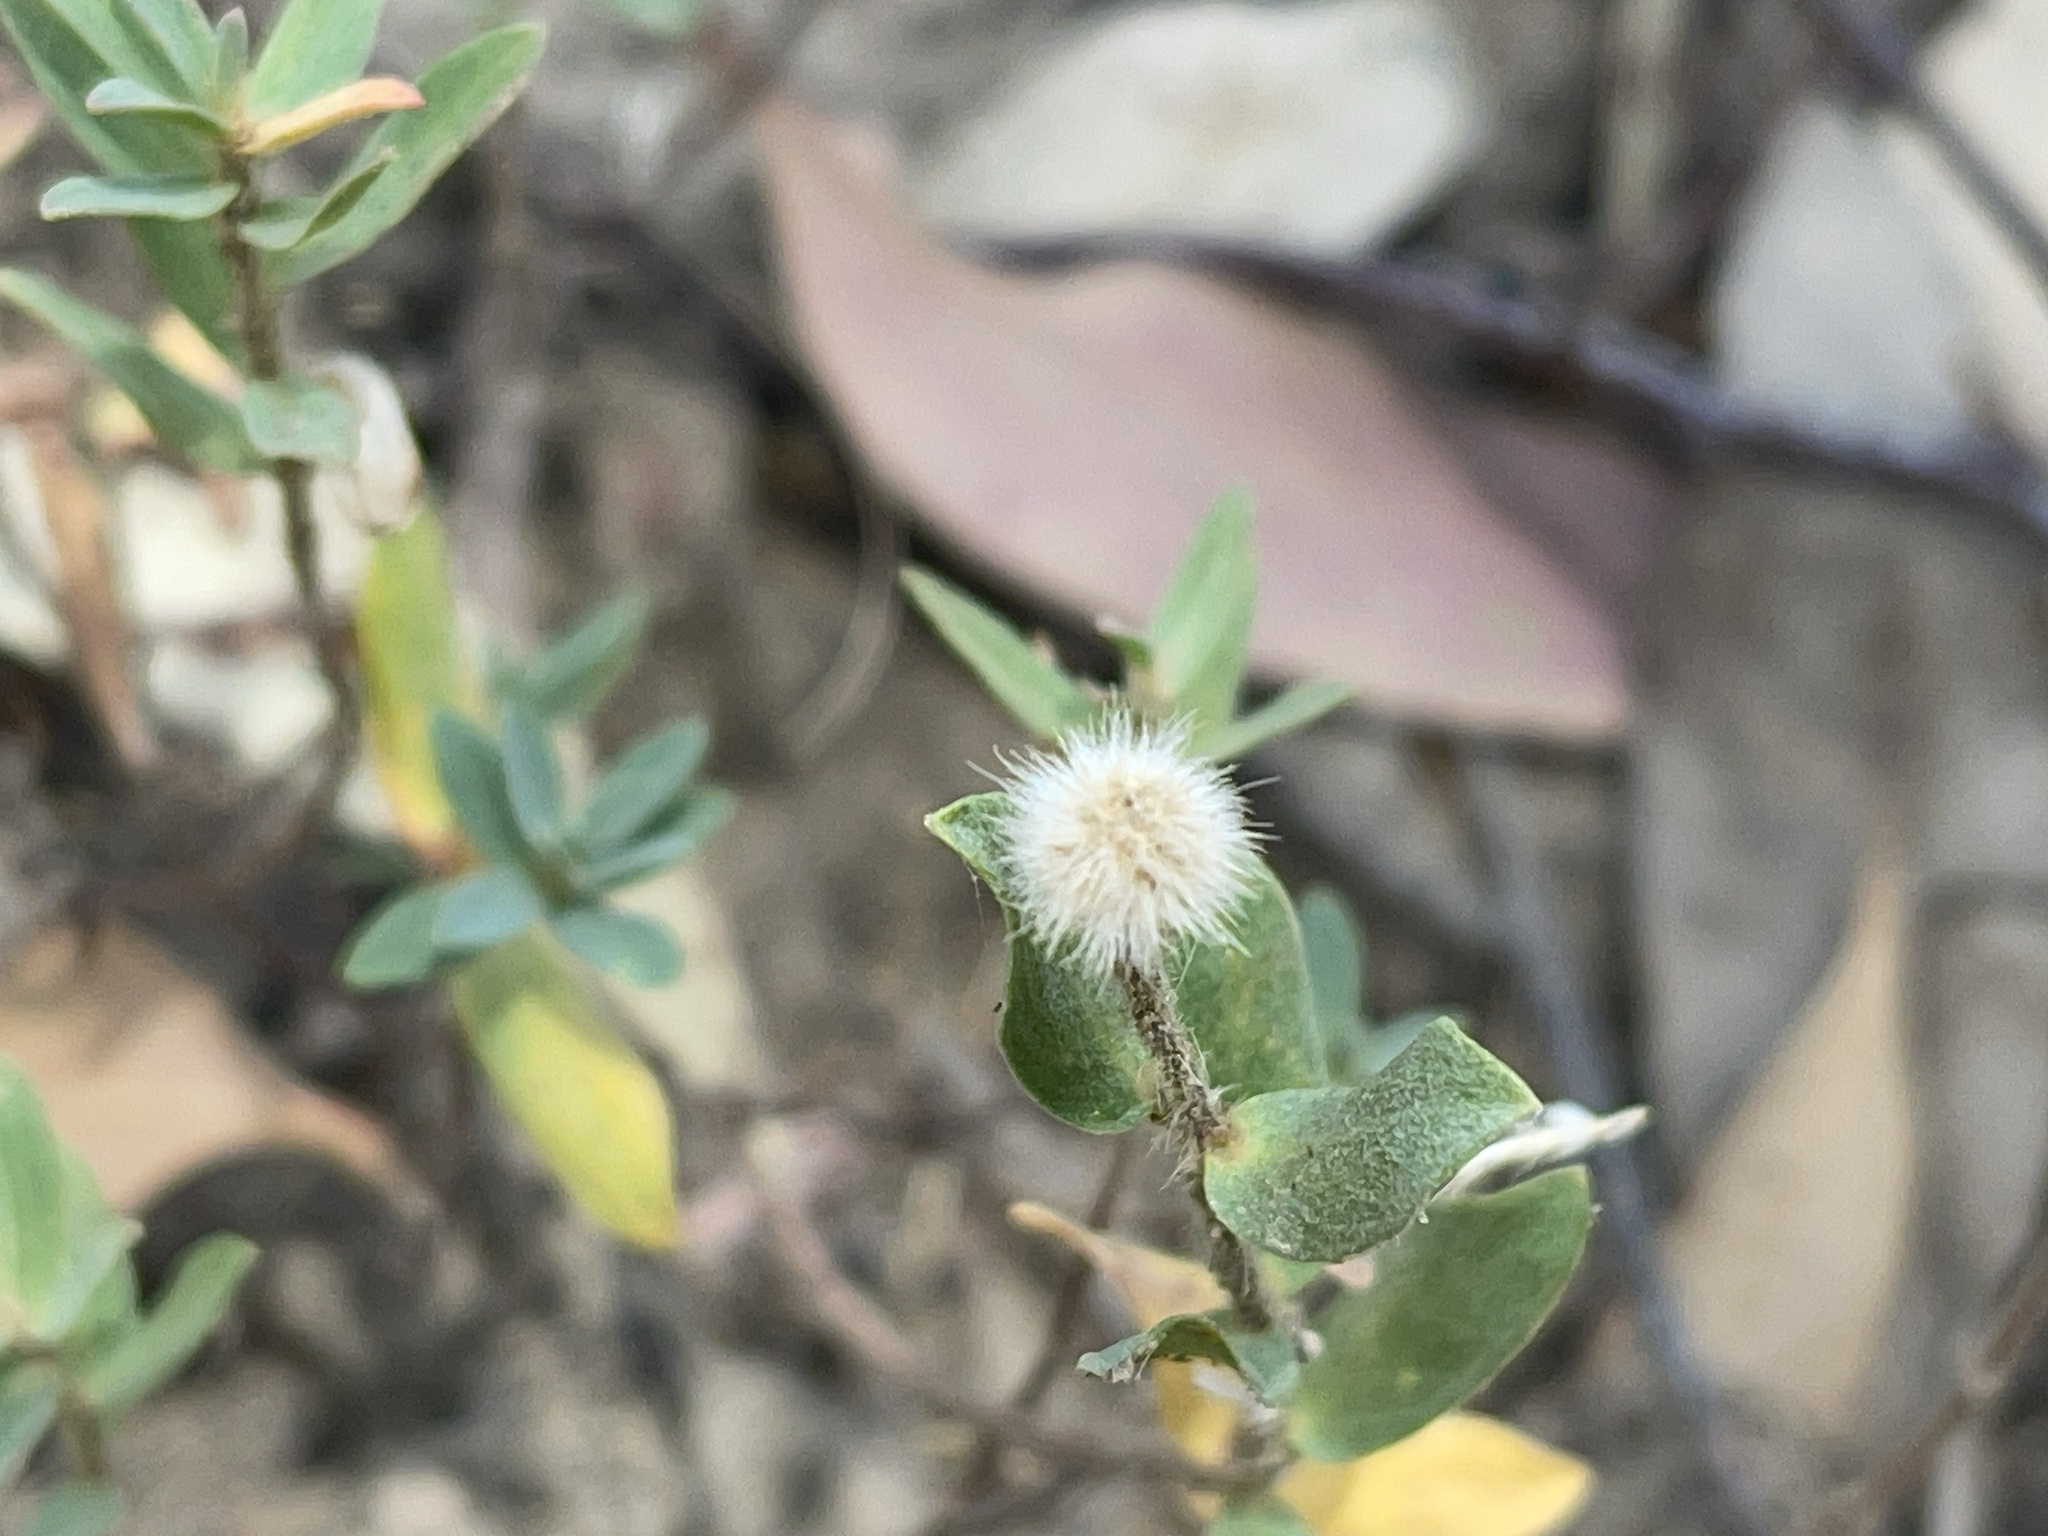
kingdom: Plantae
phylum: Tracheophyta
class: Magnoliopsida
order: Malvales
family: Thymelaeaceae
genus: Pimelea
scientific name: Pimelea humilis
